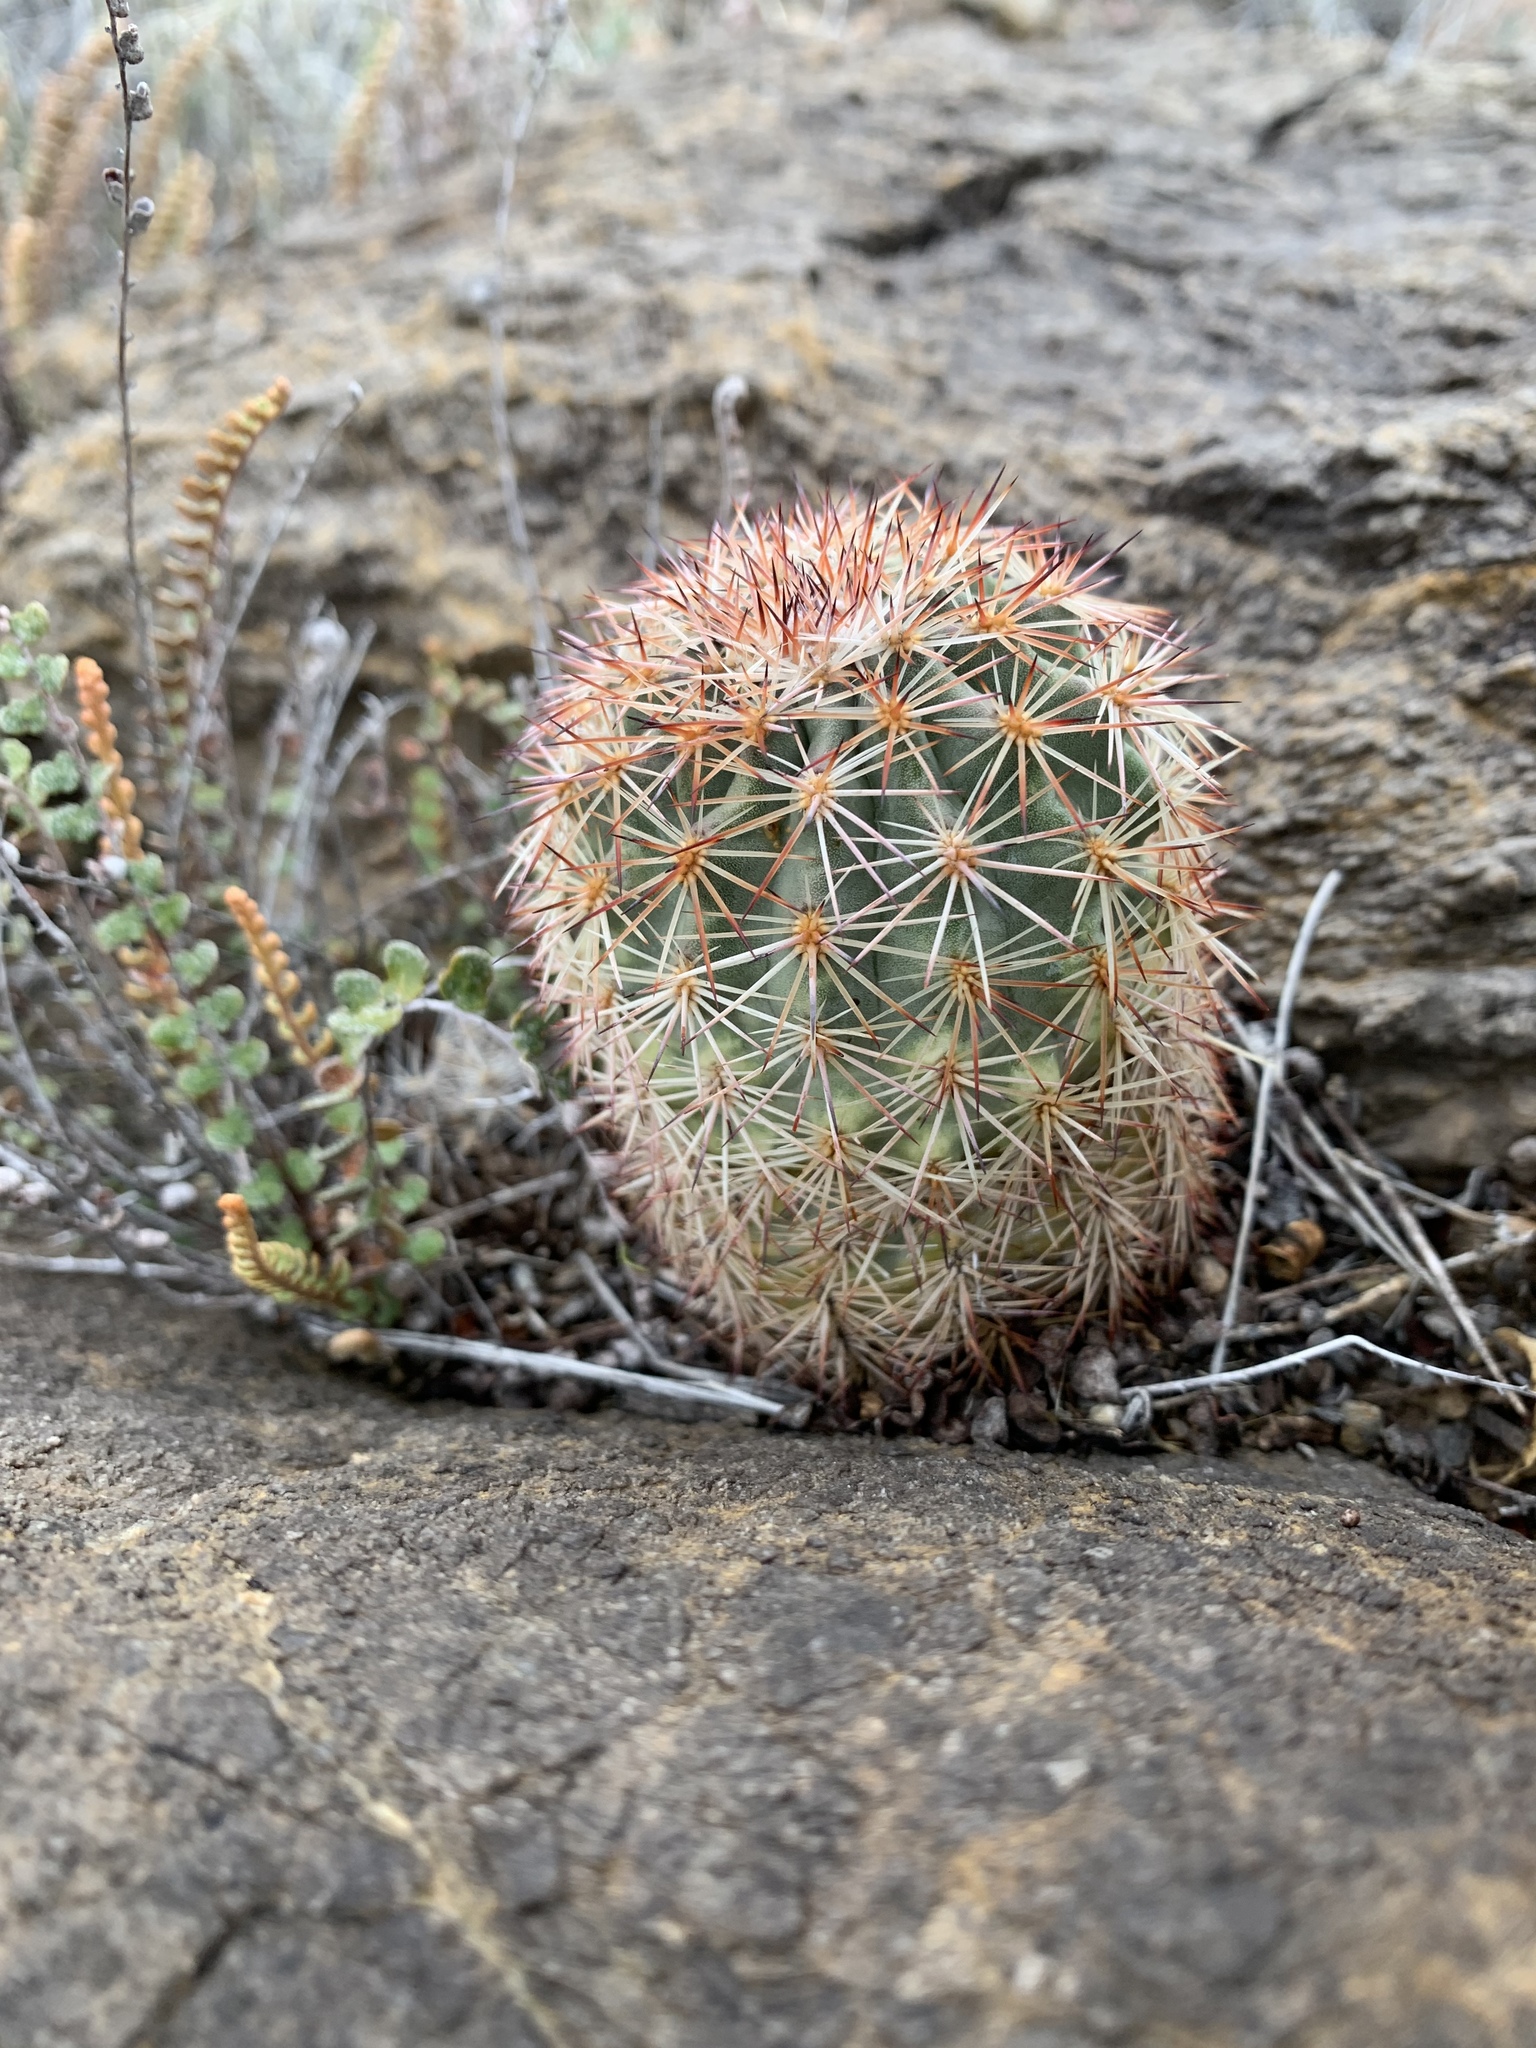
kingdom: Plantae
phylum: Tracheophyta
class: Magnoliopsida
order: Caryophyllales
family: Cactaceae
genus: Echinocereus
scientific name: Echinocereus dasyacanthus
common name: Spiny hedgehog cactus
